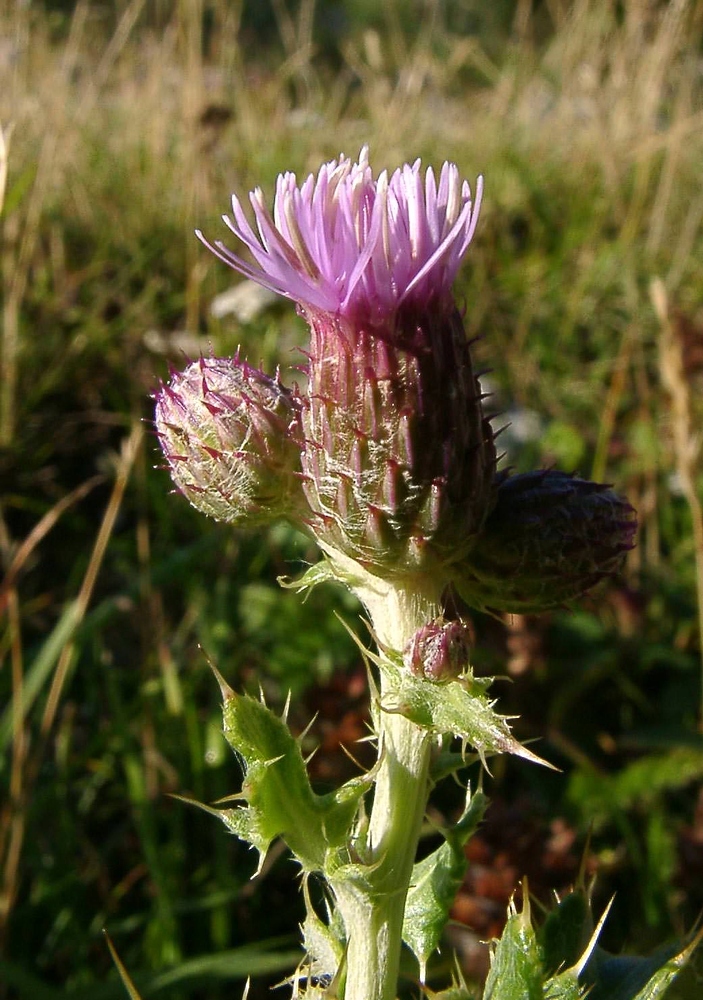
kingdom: Plantae
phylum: Tracheophyta
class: Magnoliopsida
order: Asterales
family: Asteraceae
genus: Cirsium
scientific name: Cirsium arvense
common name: Creeping thistle
